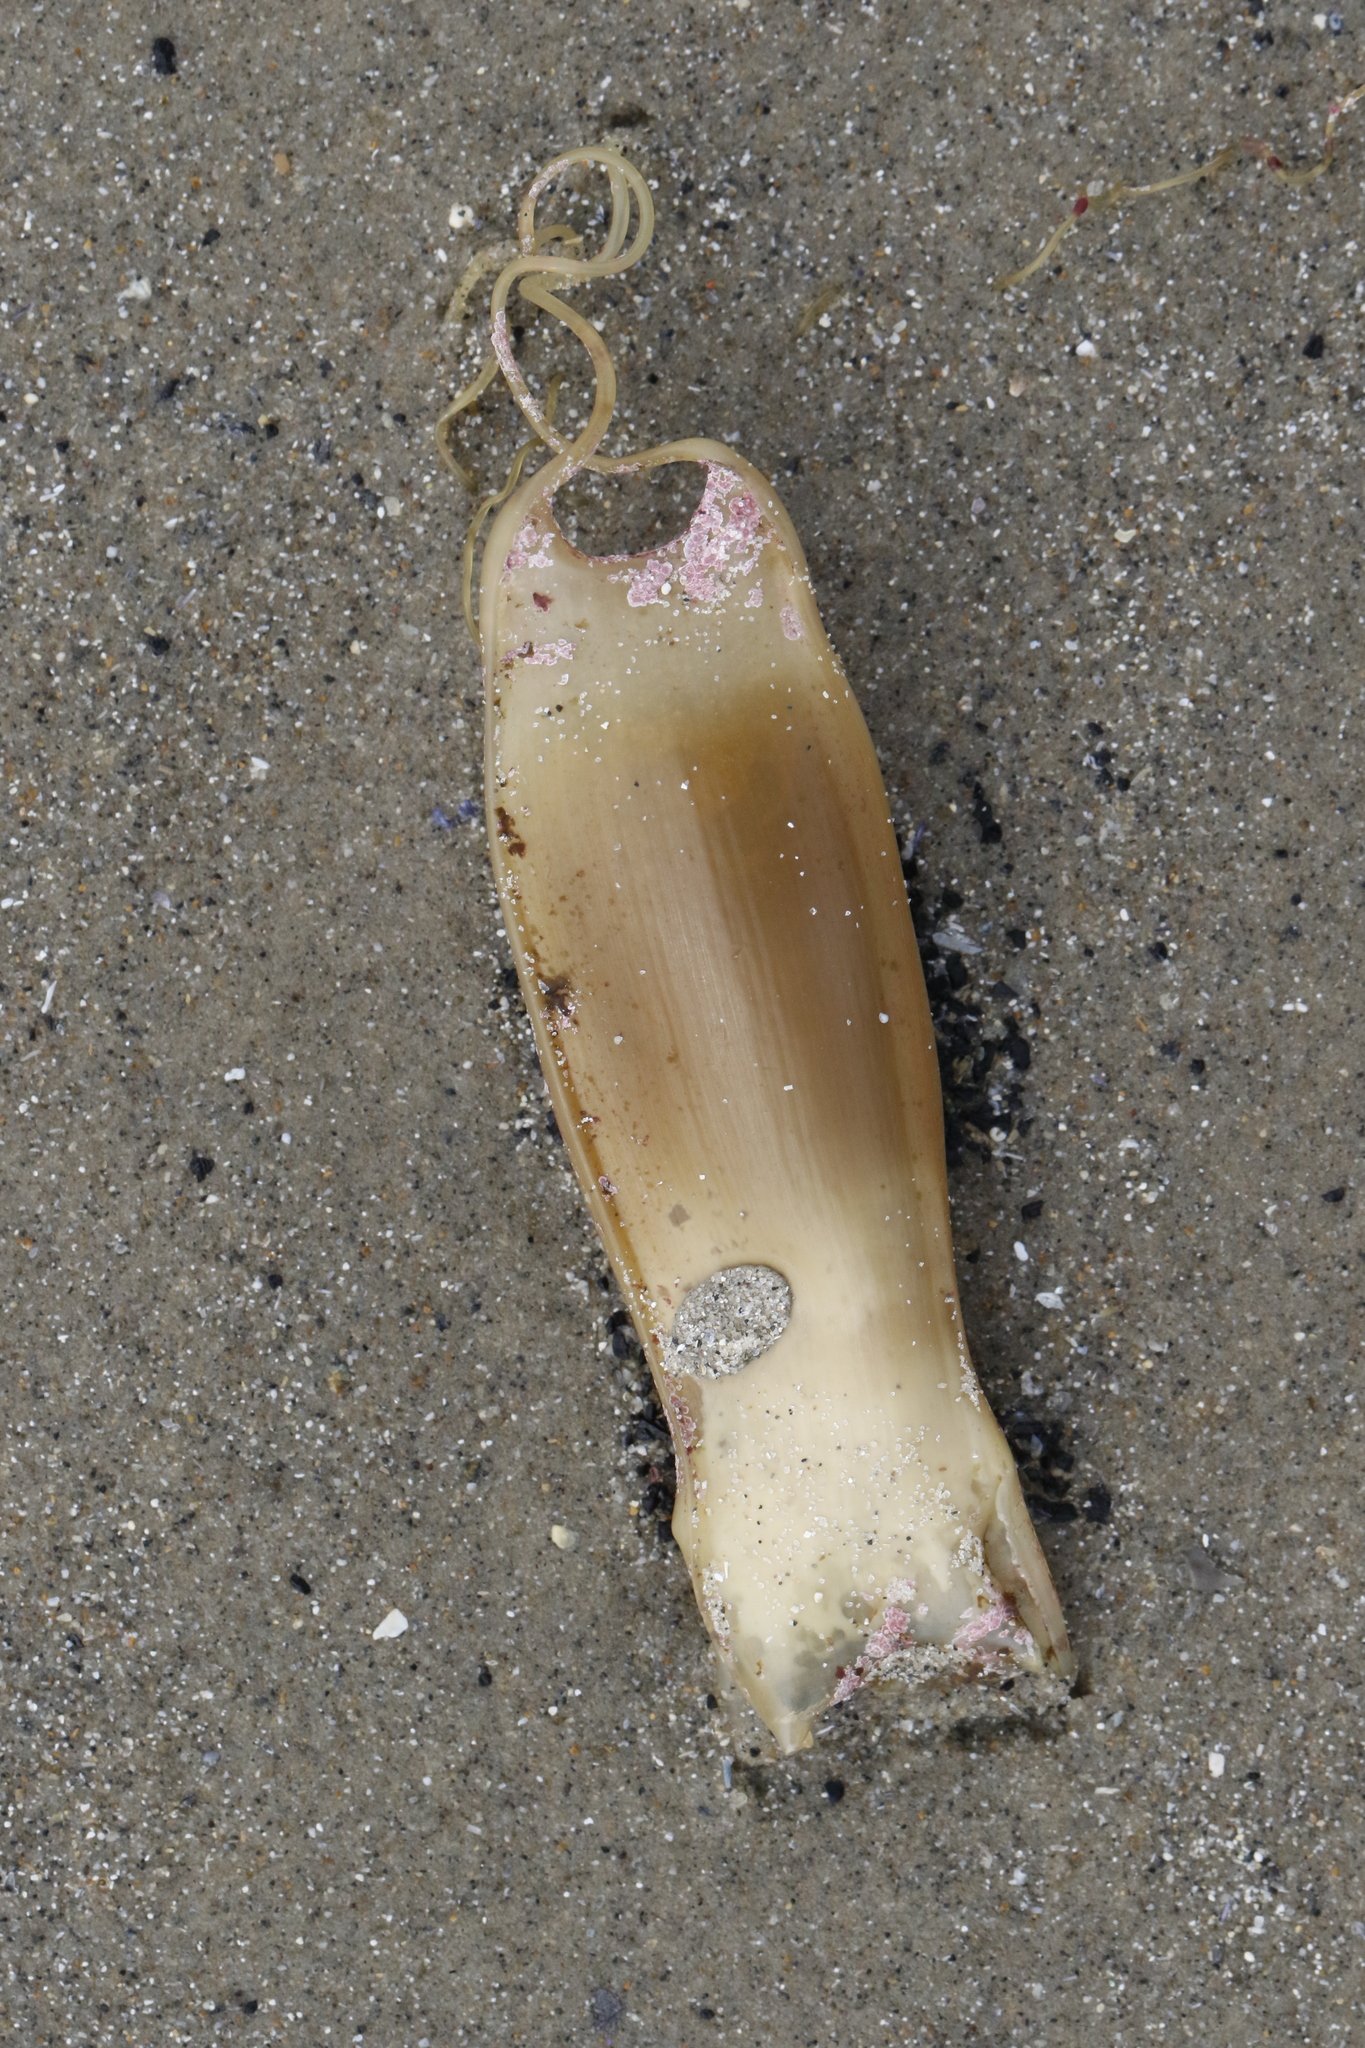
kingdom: Animalia
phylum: Chordata
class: Elasmobranchii
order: Carcharhiniformes
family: Scyliorhinidae
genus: Scyliorhinus
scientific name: Scyliorhinus canicula
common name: Lesser spotted dogfish
